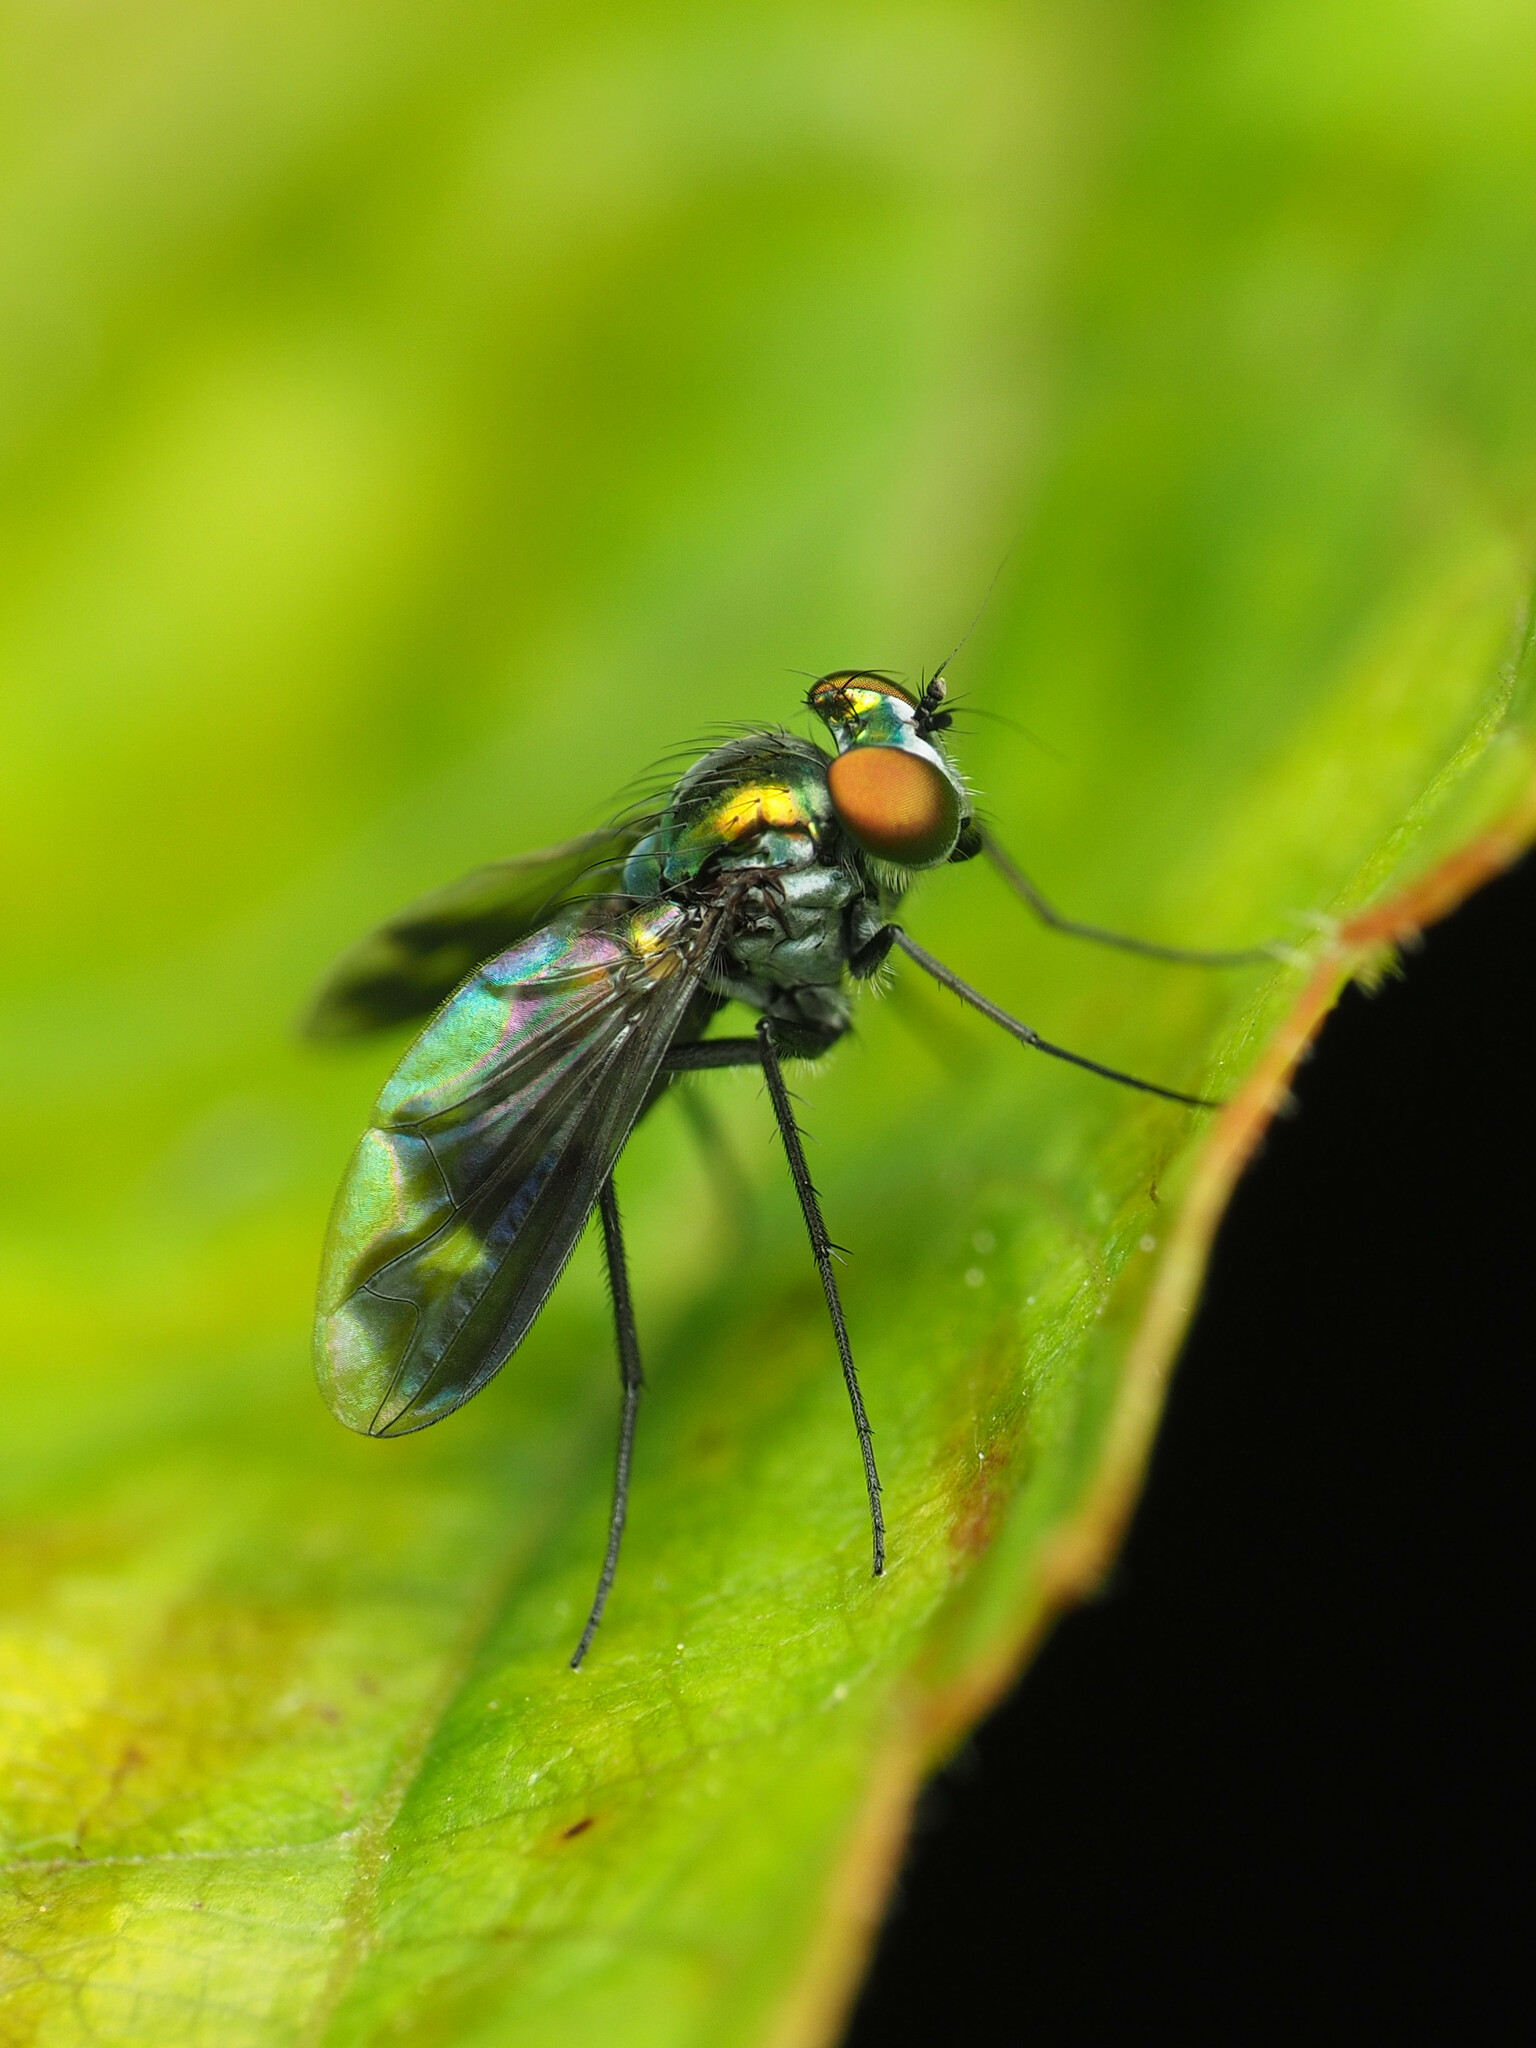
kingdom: Animalia
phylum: Arthropoda
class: Insecta
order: Diptera
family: Dolichopodidae
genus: Condylostylus
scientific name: Condylostylus patibulatus
